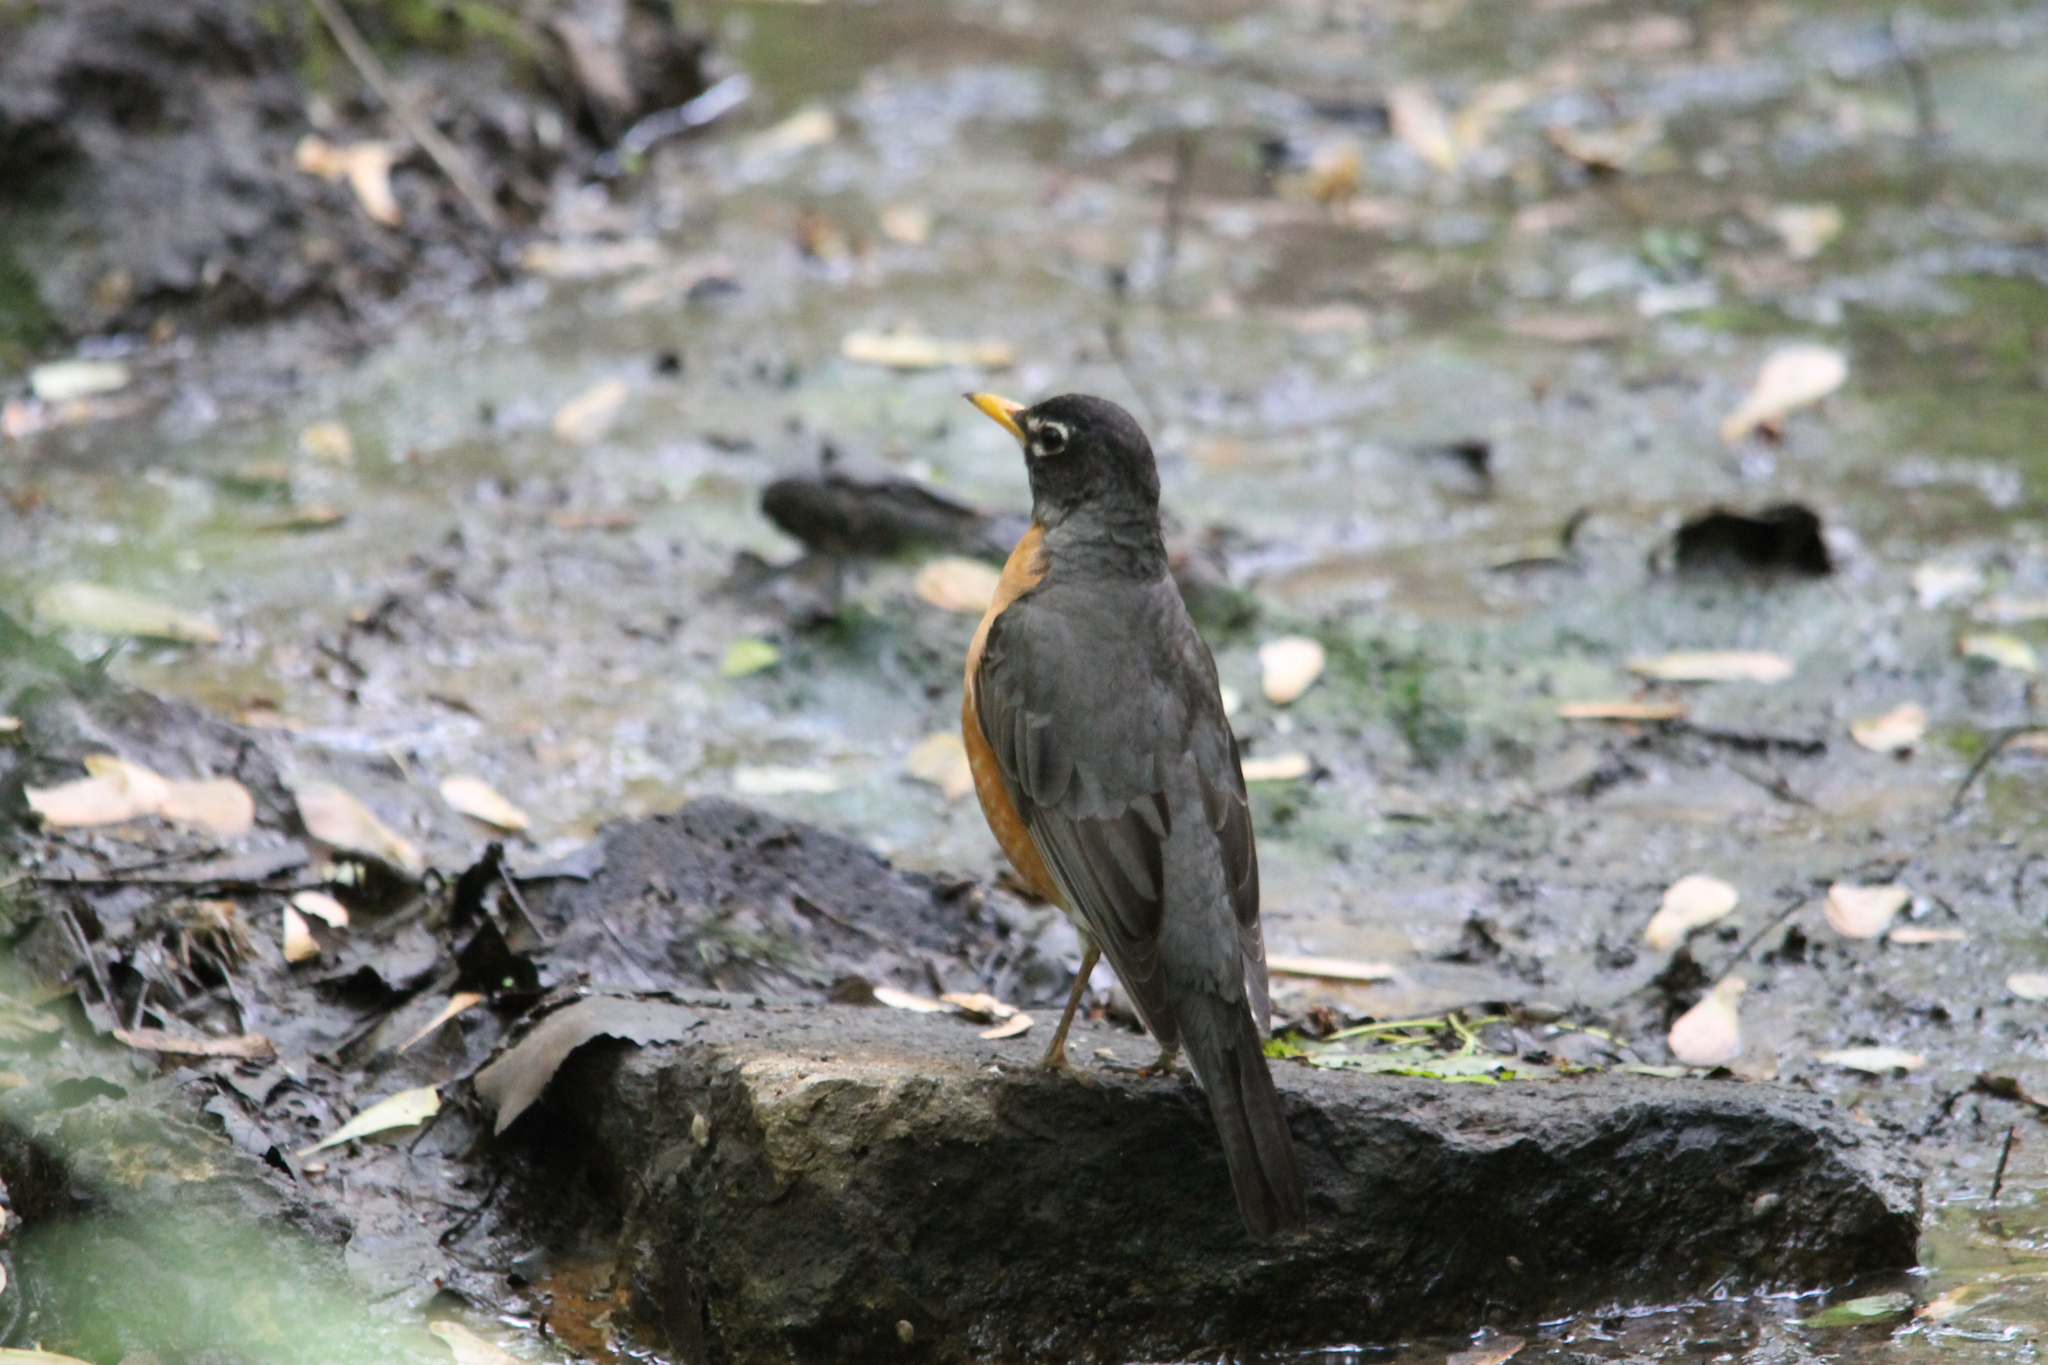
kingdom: Animalia
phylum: Chordata
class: Aves
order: Passeriformes
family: Turdidae
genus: Turdus
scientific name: Turdus migratorius
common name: American robin
